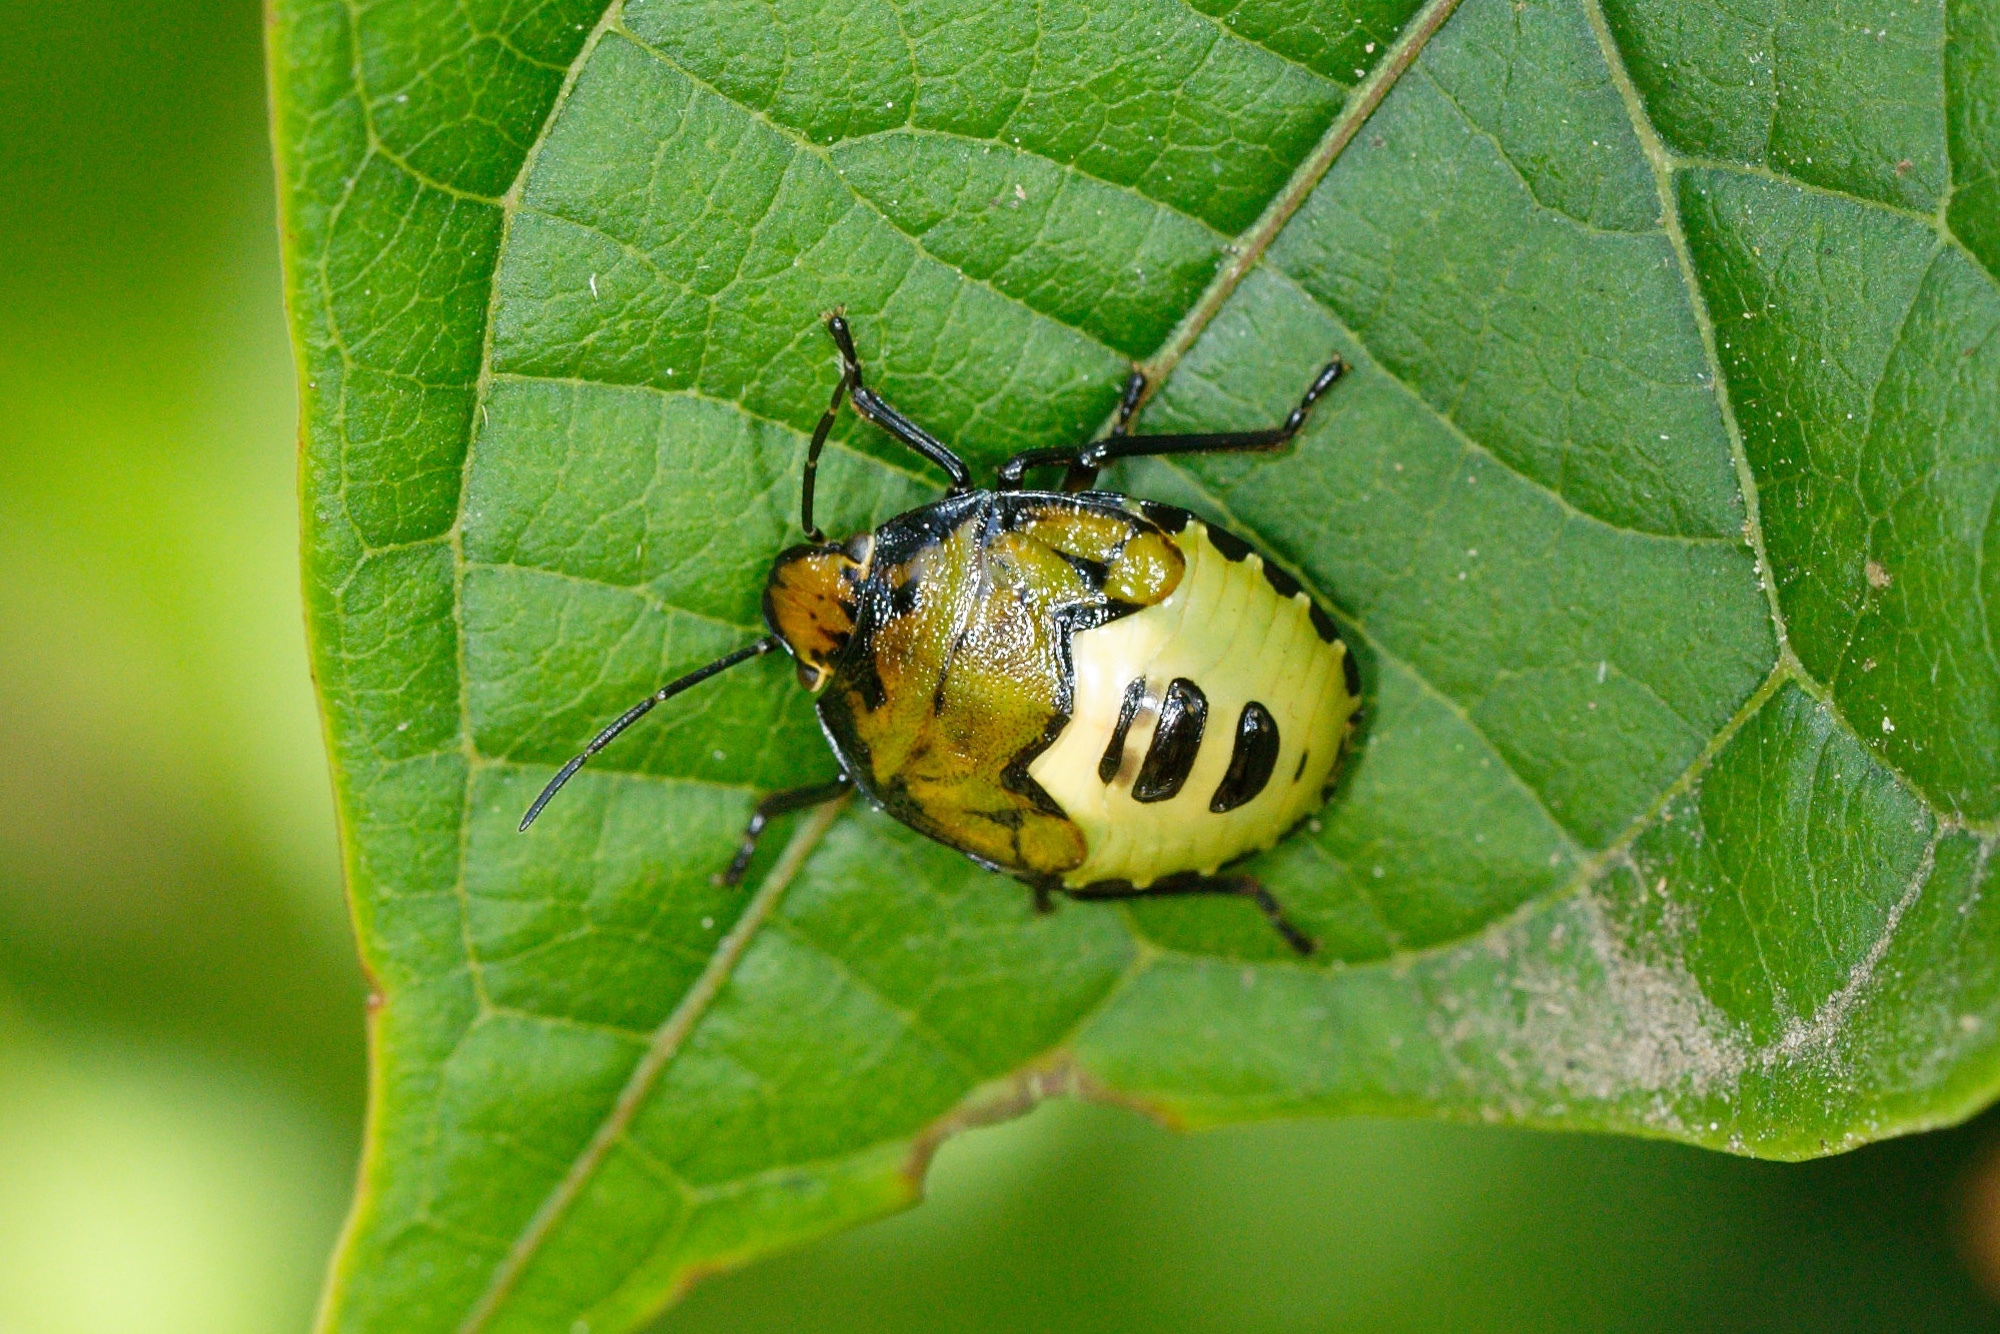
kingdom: Animalia
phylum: Arthropoda
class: Insecta
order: Hemiptera
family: Pentatomidae
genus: Glaucias
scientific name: Glaucias amyota
